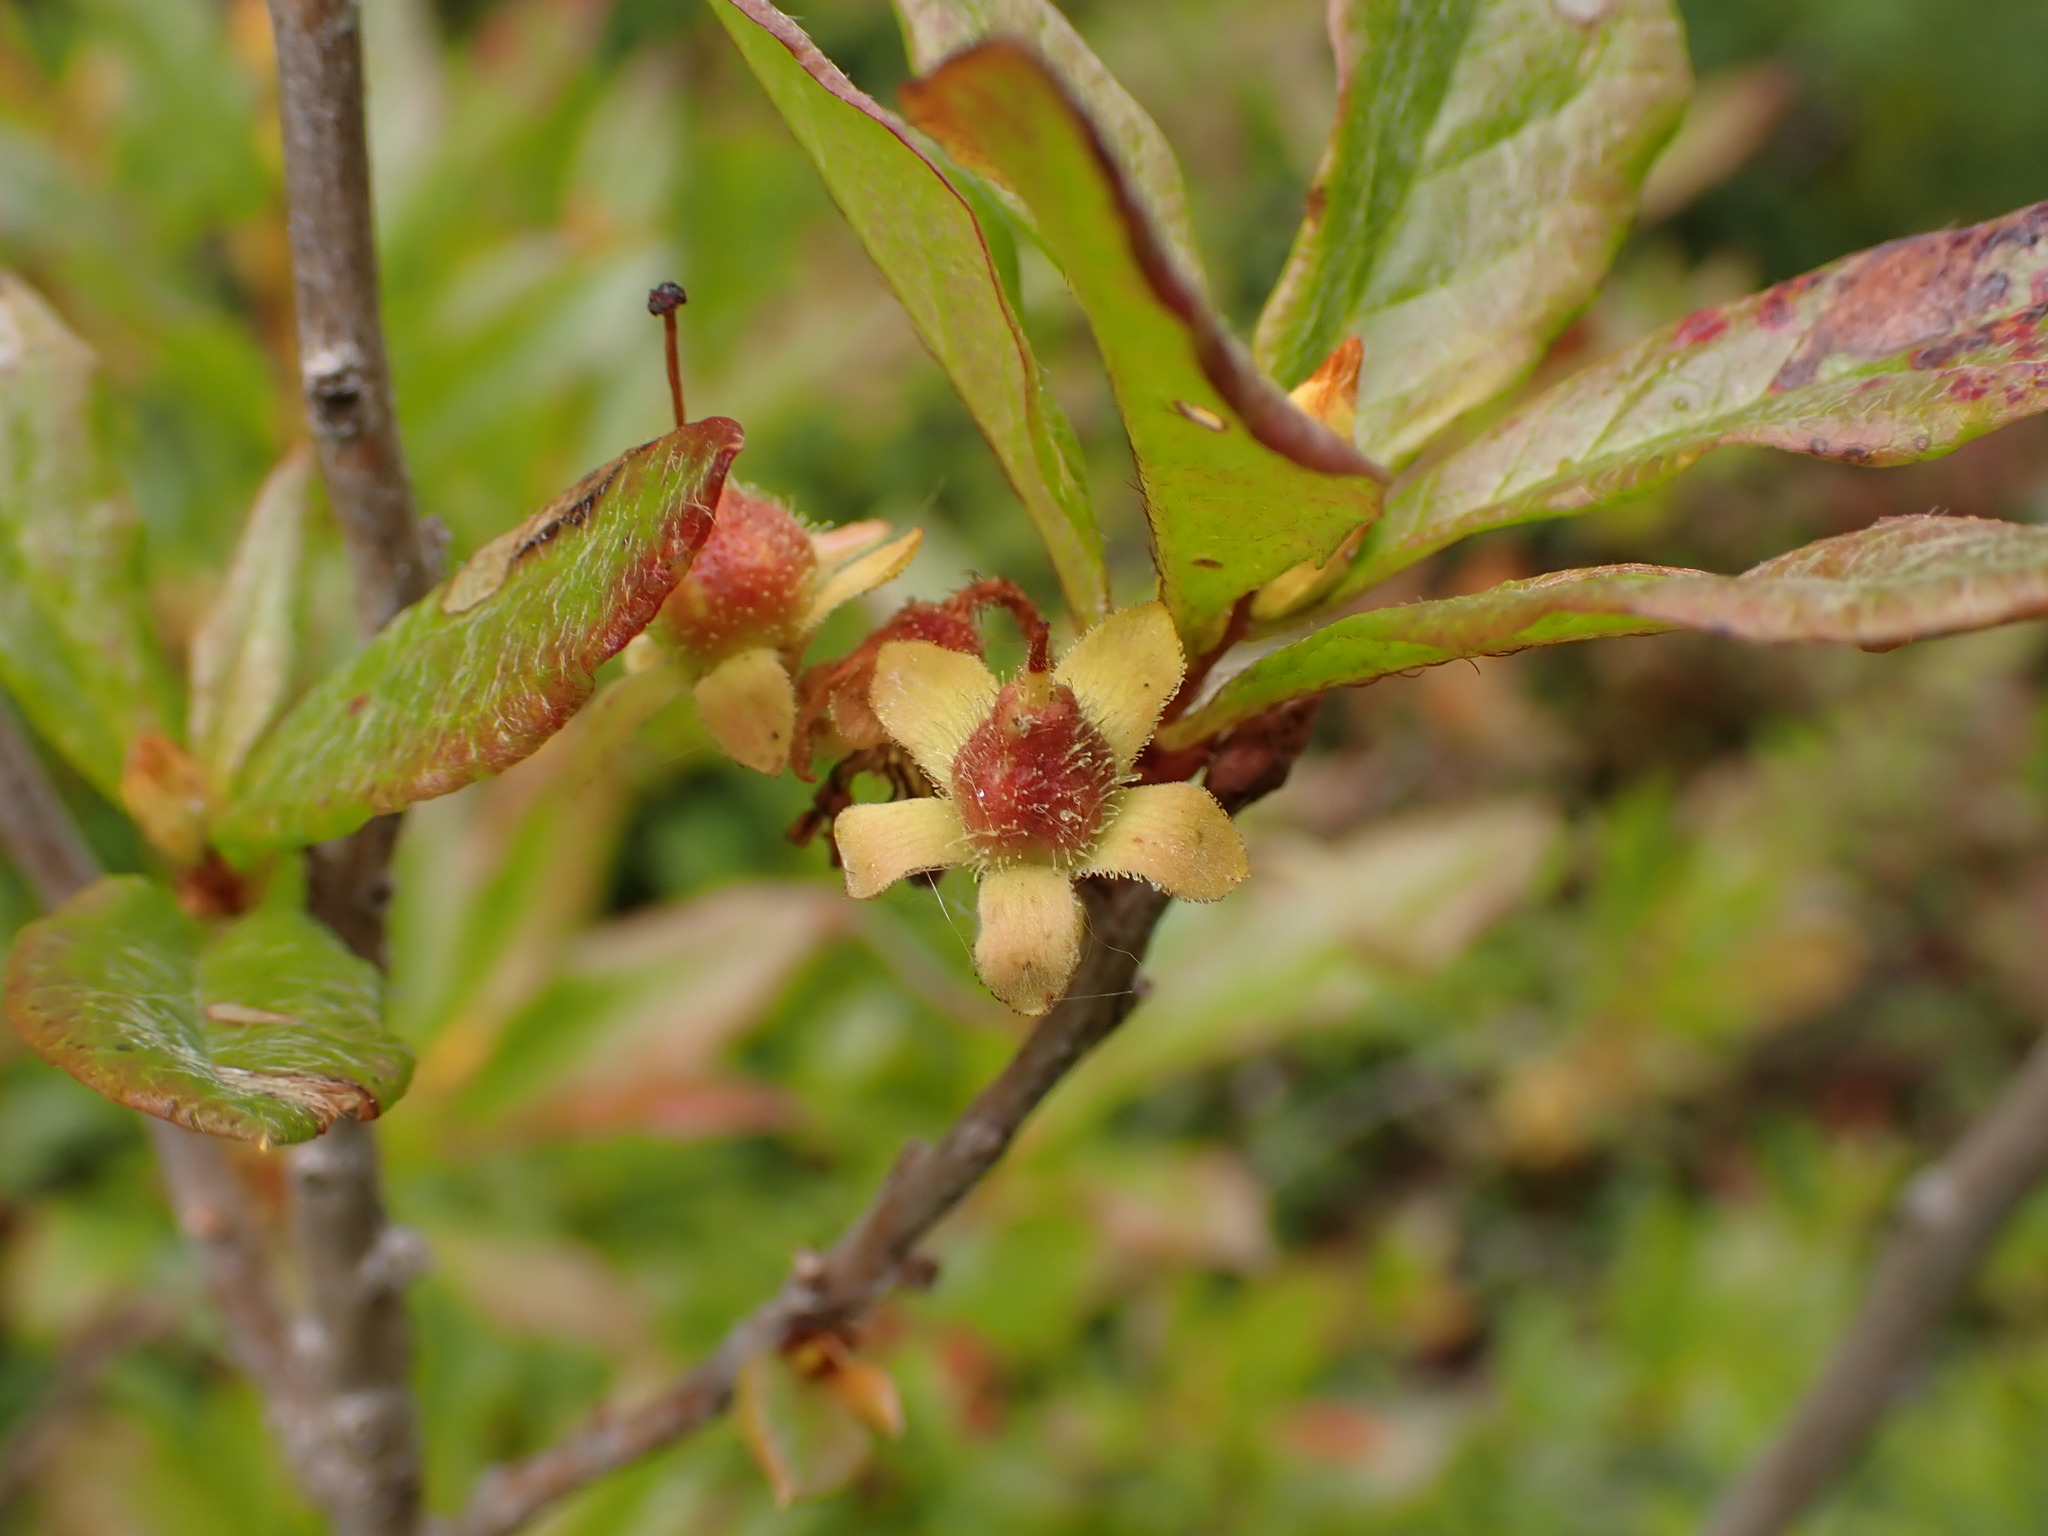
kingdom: Plantae
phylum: Tracheophyta
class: Magnoliopsida
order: Ericales
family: Ericaceae
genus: Rhododendron
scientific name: Rhododendron albiflorum
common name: White rhododendron
